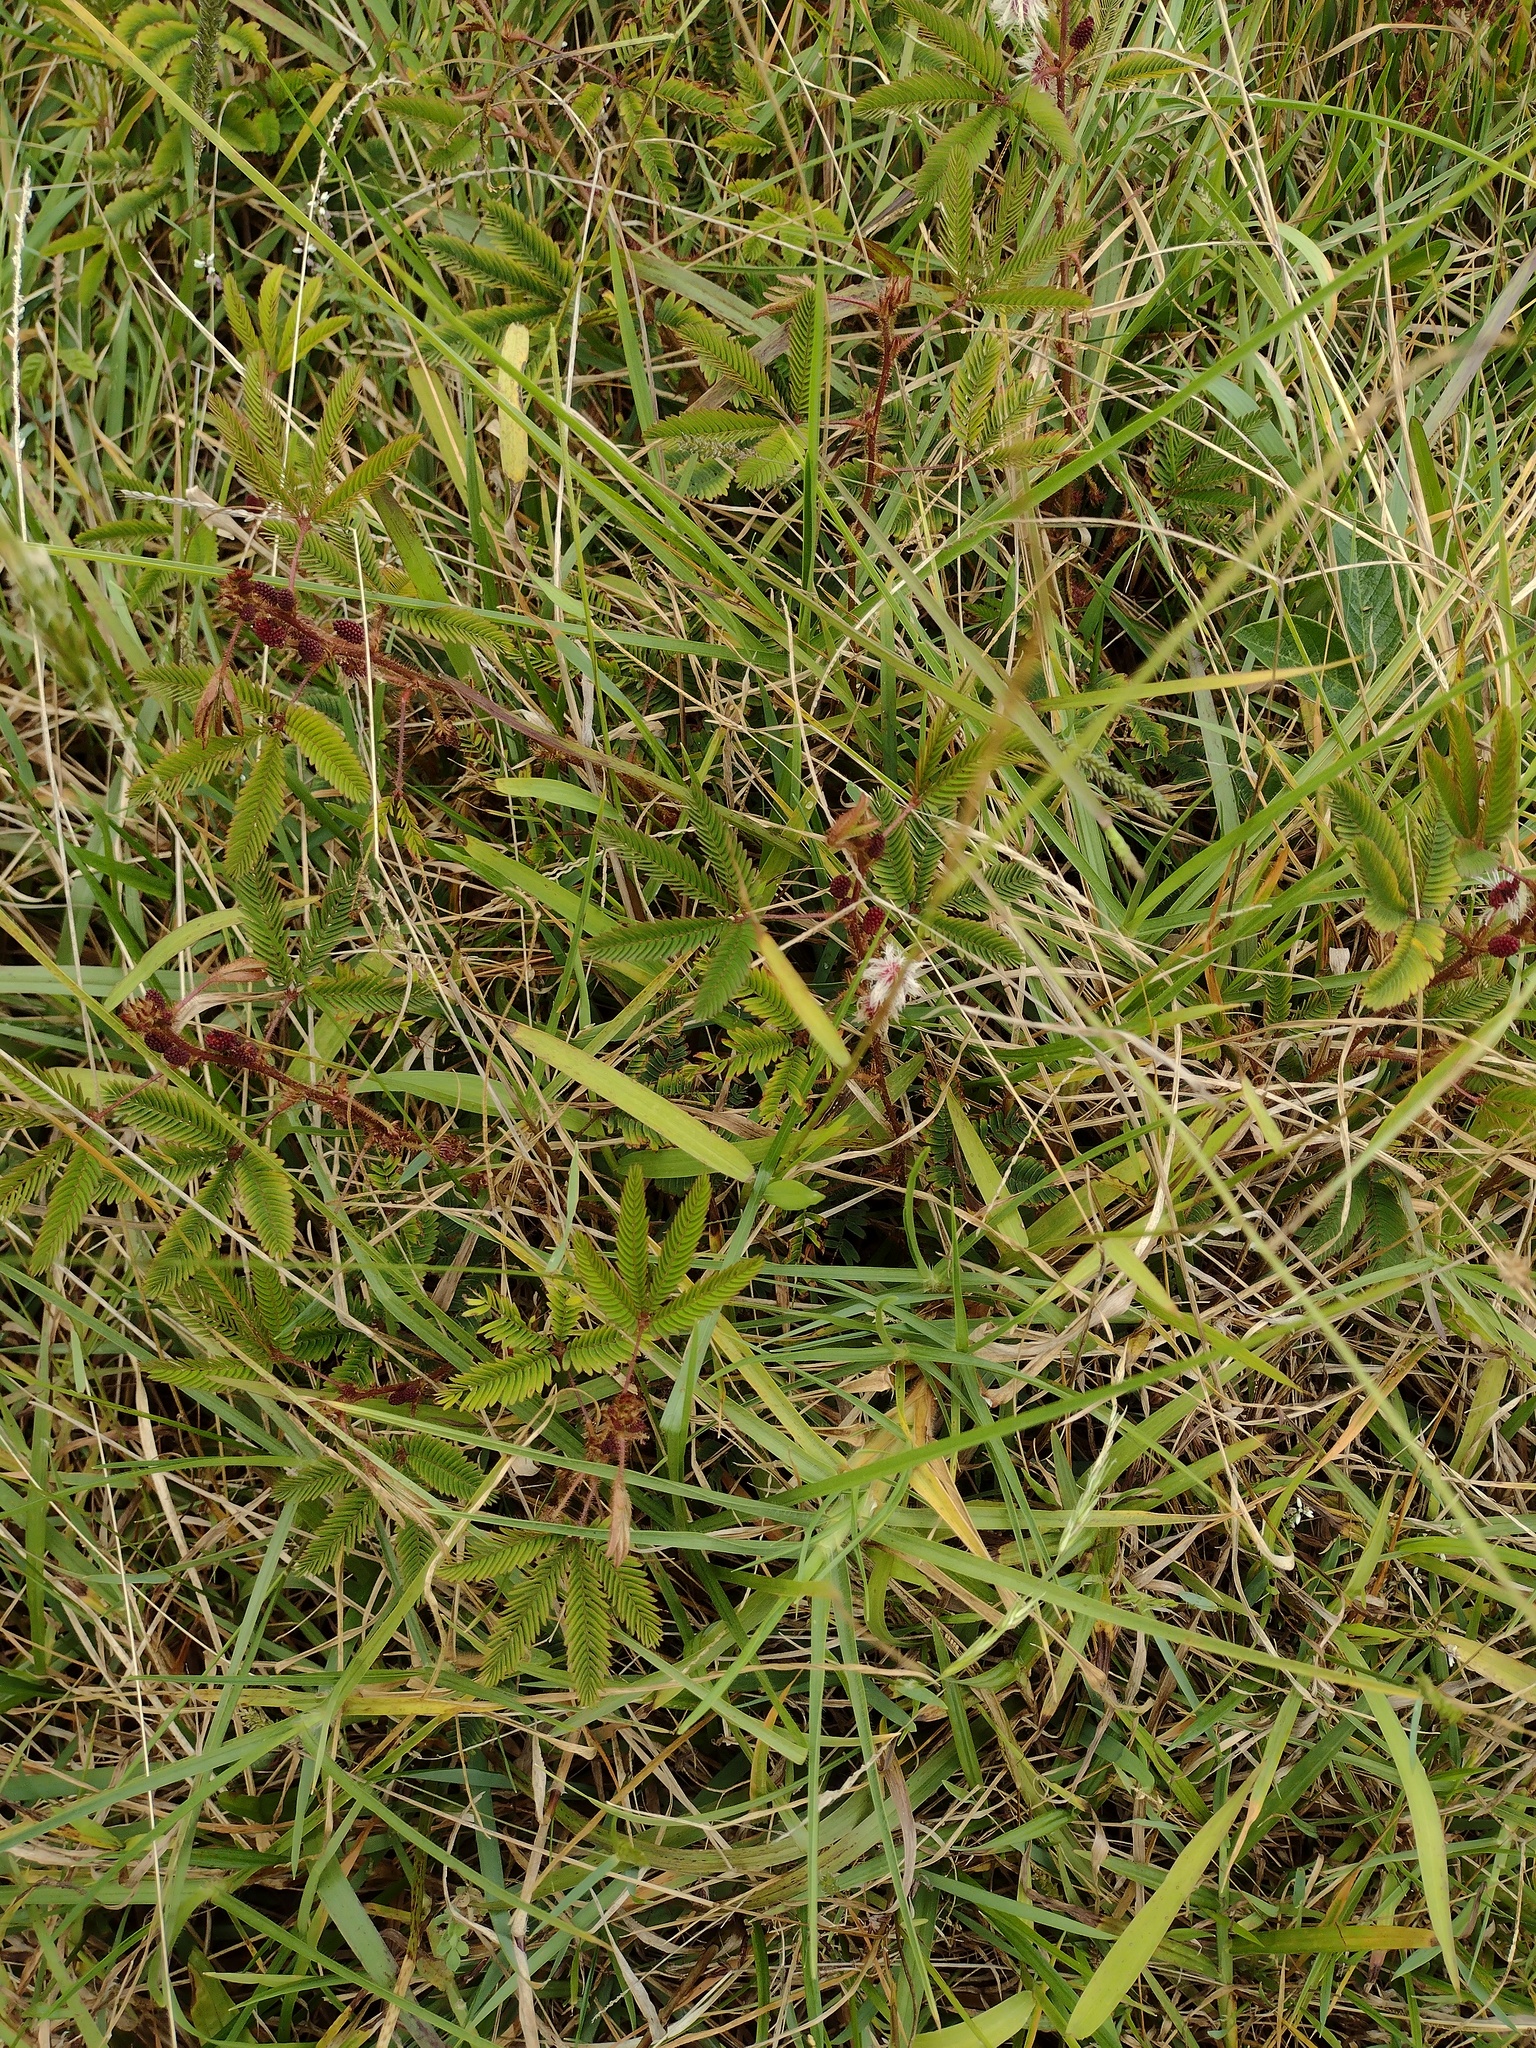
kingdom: Plantae
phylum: Tracheophyta
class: Magnoliopsida
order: Fabales
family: Fabaceae
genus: Mimosa
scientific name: Mimosa pudica
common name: Sensitive plant
